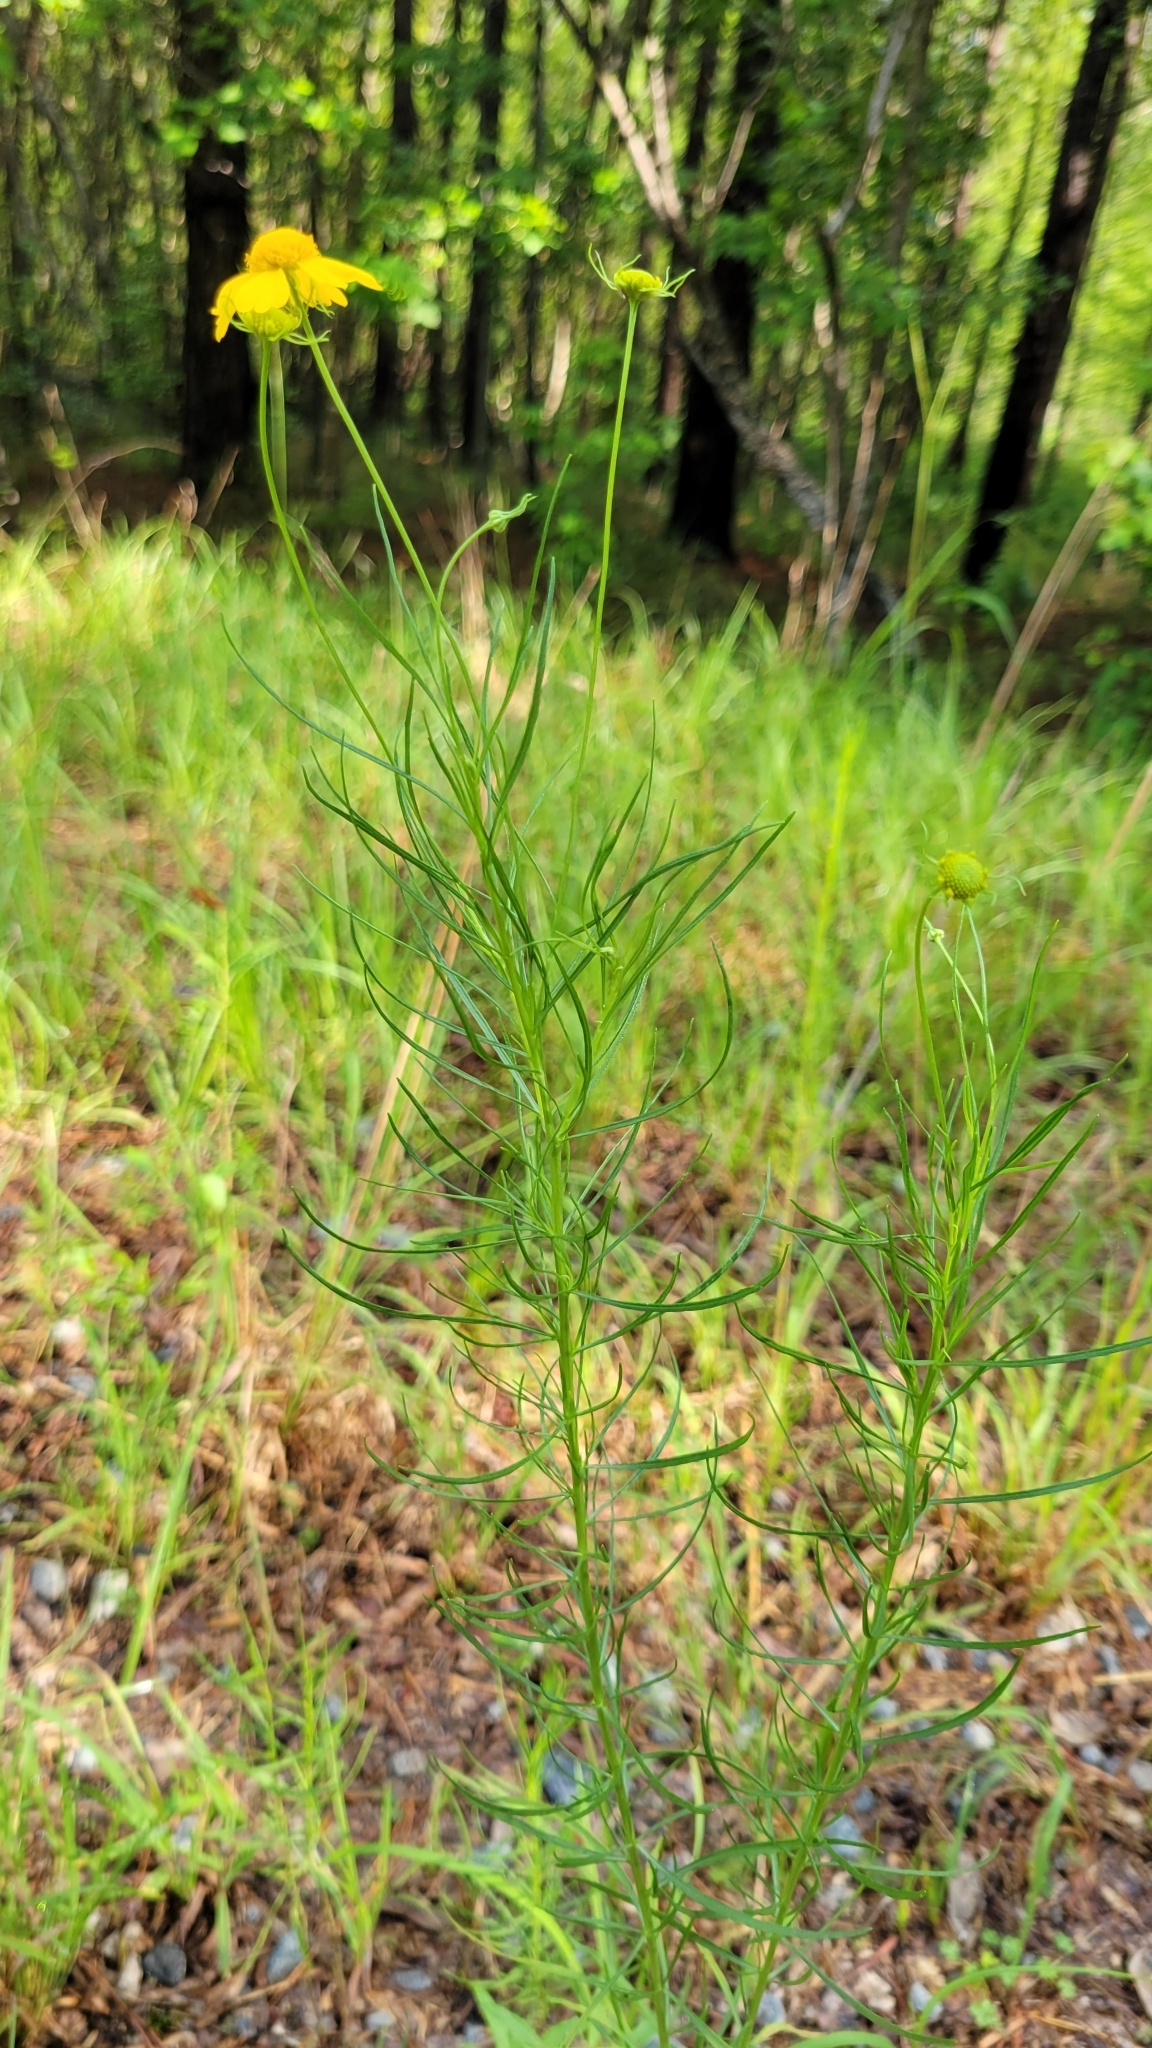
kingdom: Plantae
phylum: Tracheophyta
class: Magnoliopsida
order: Asterales
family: Asteraceae
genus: Helenium
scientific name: Helenium amarum
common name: Bitter sneezeweed
